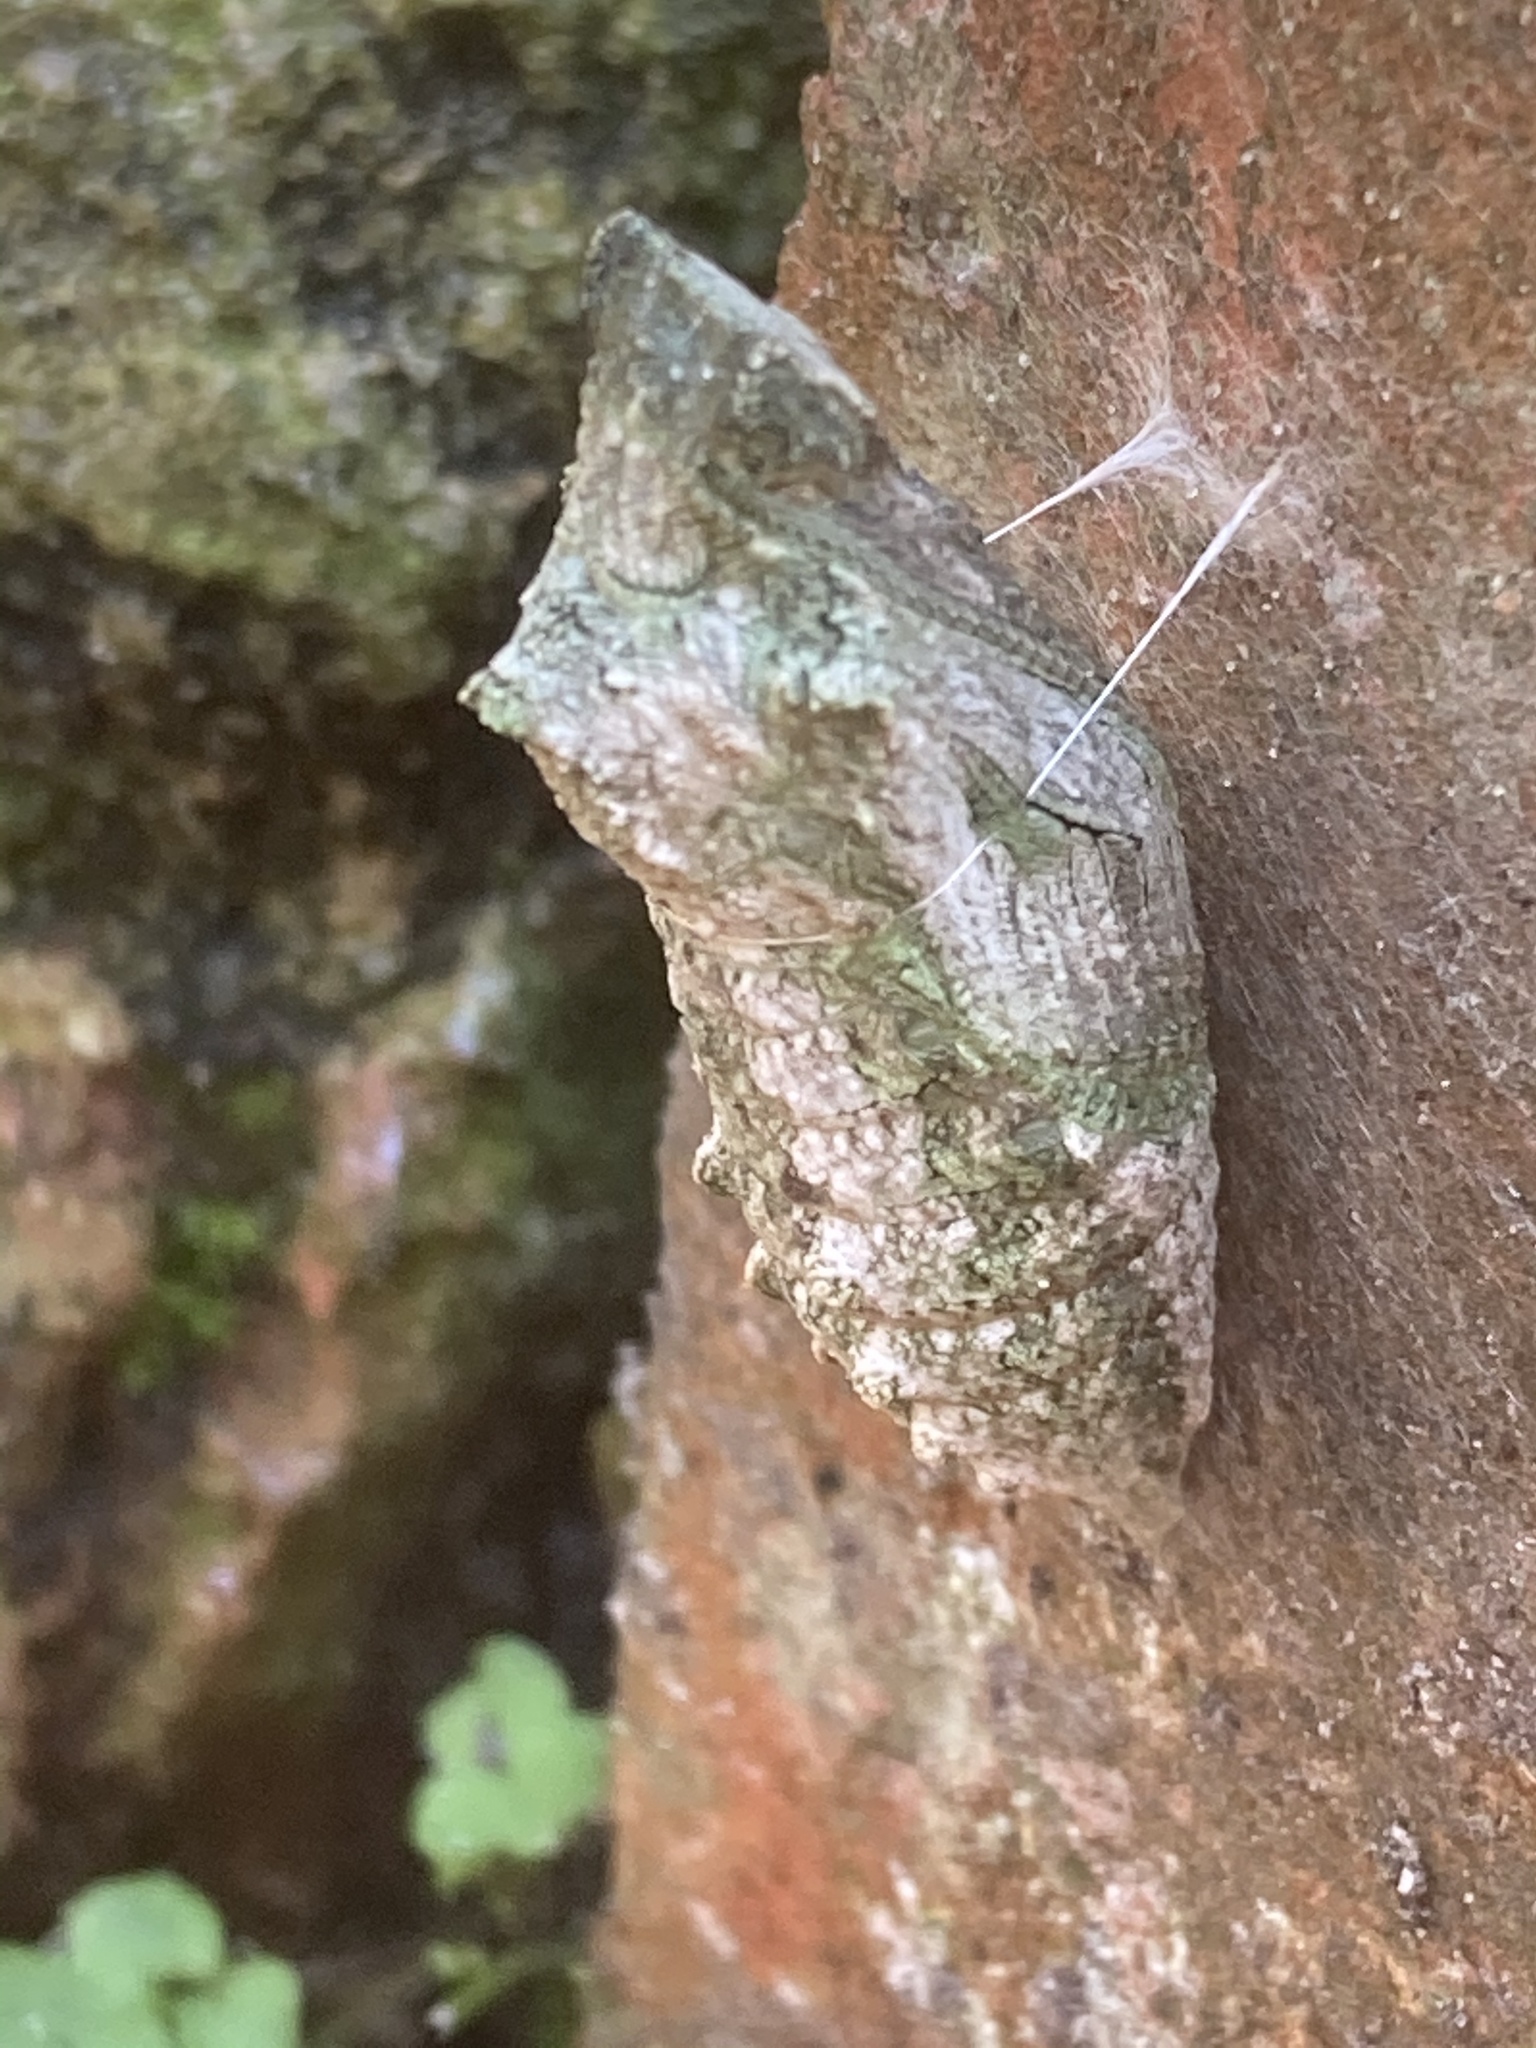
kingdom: Animalia
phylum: Arthropoda
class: Insecta
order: Lepidoptera
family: Papilionidae
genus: Papilio
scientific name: Papilio machaon
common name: Swallowtail
